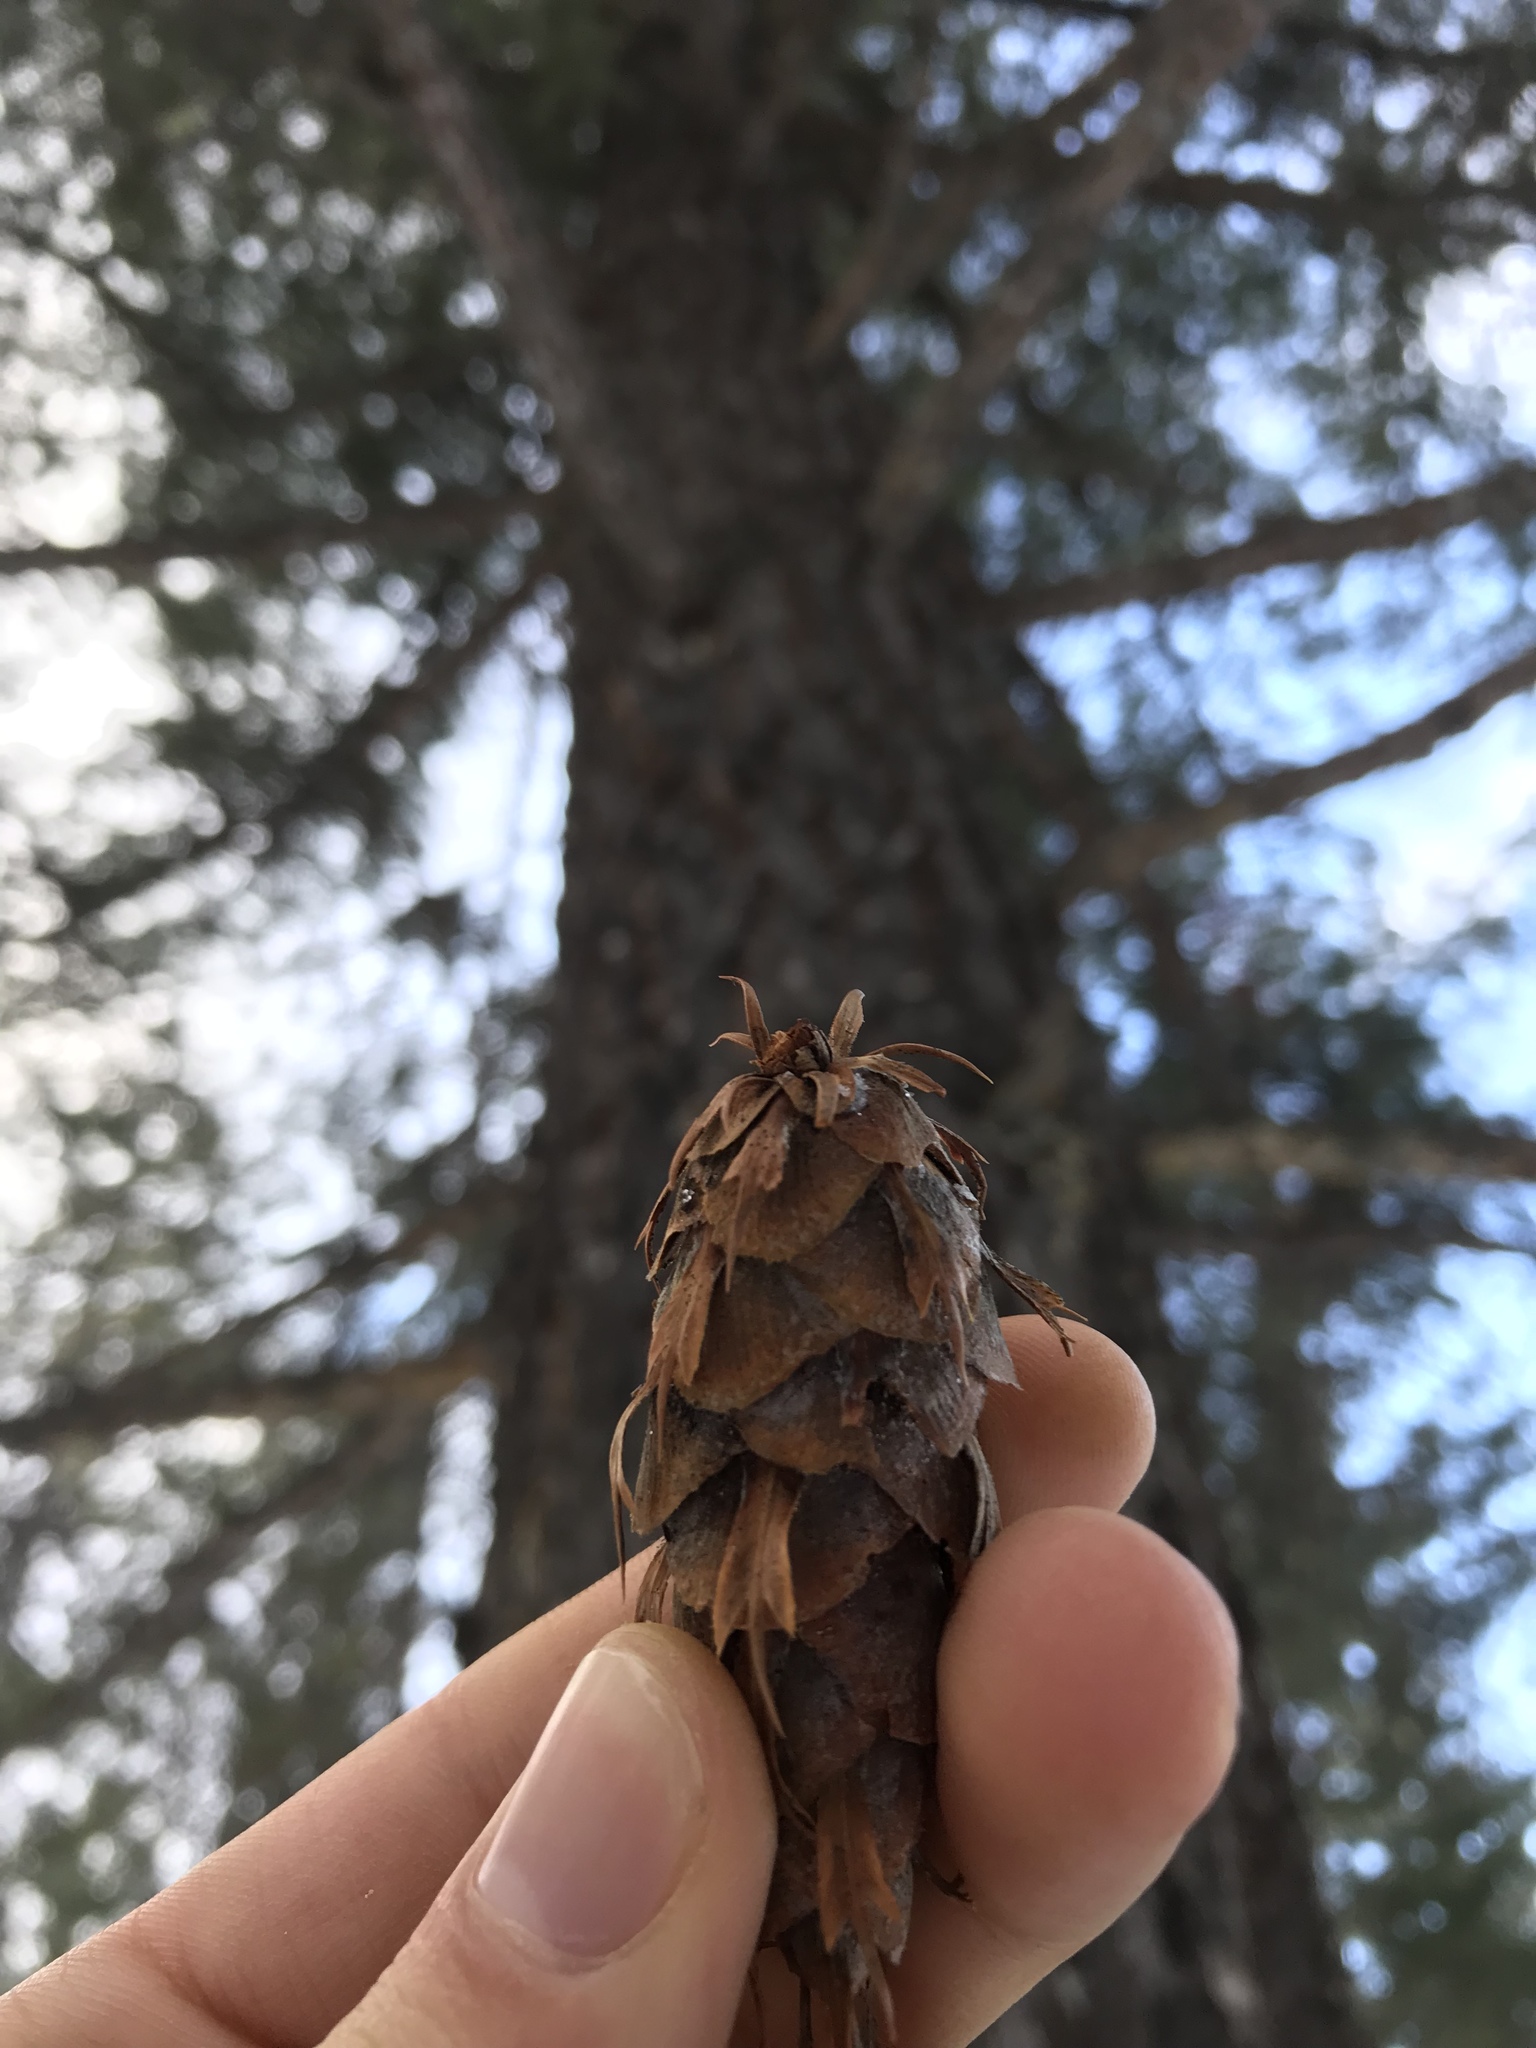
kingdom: Plantae
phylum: Tracheophyta
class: Pinopsida
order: Pinales
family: Pinaceae
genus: Pseudotsuga
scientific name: Pseudotsuga menziesii
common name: Douglas fir
